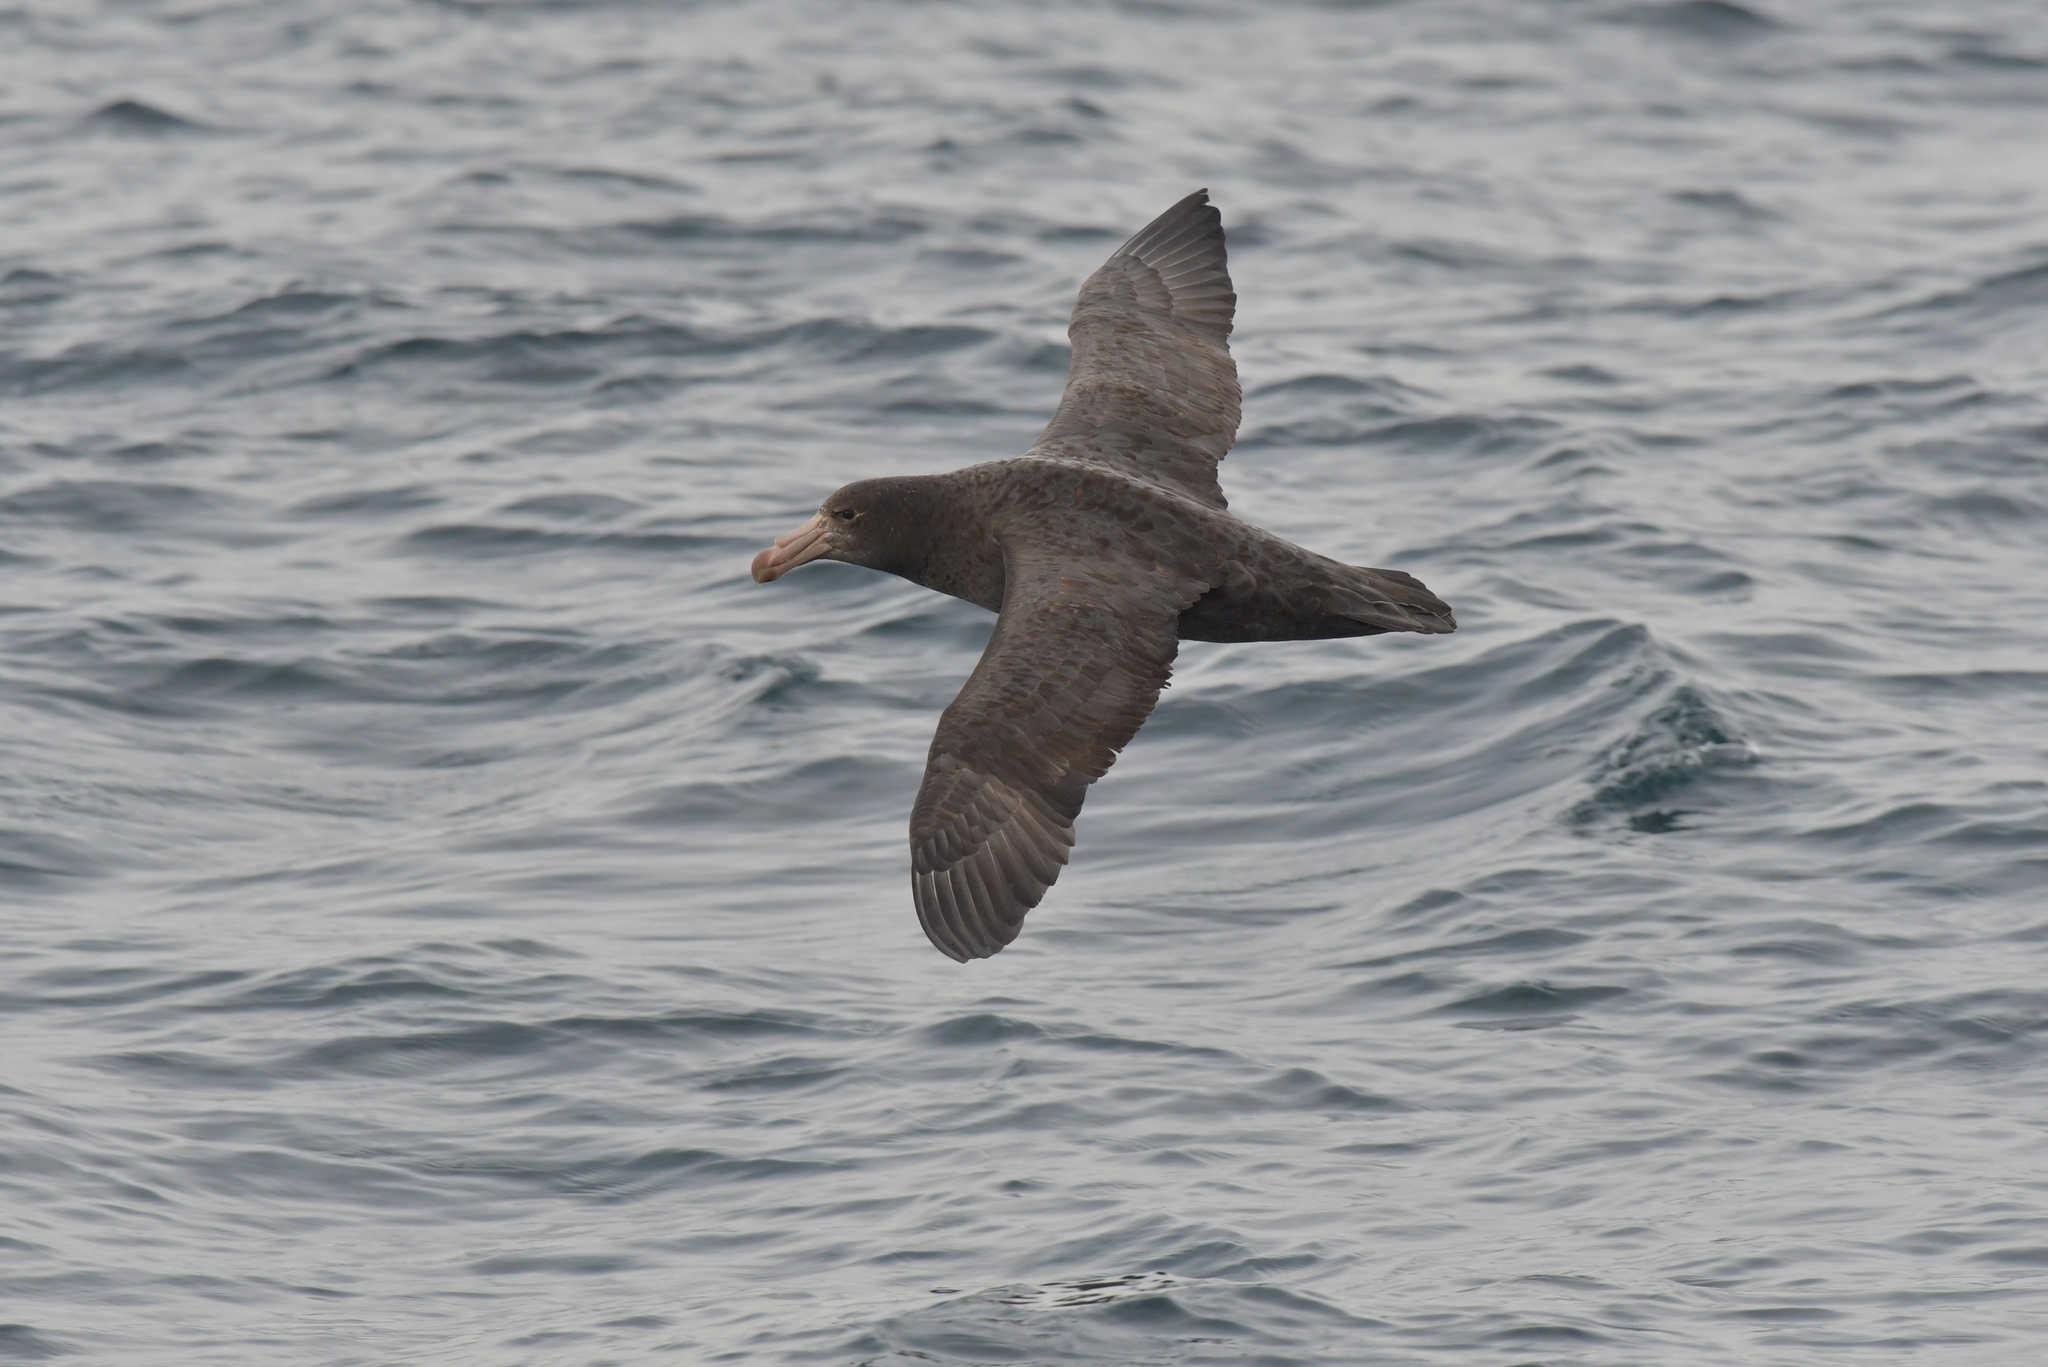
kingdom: Animalia
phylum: Chordata
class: Aves
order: Procellariiformes
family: Procellariidae
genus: Macronectes
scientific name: Macronectes halli
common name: Northern giant petrel
